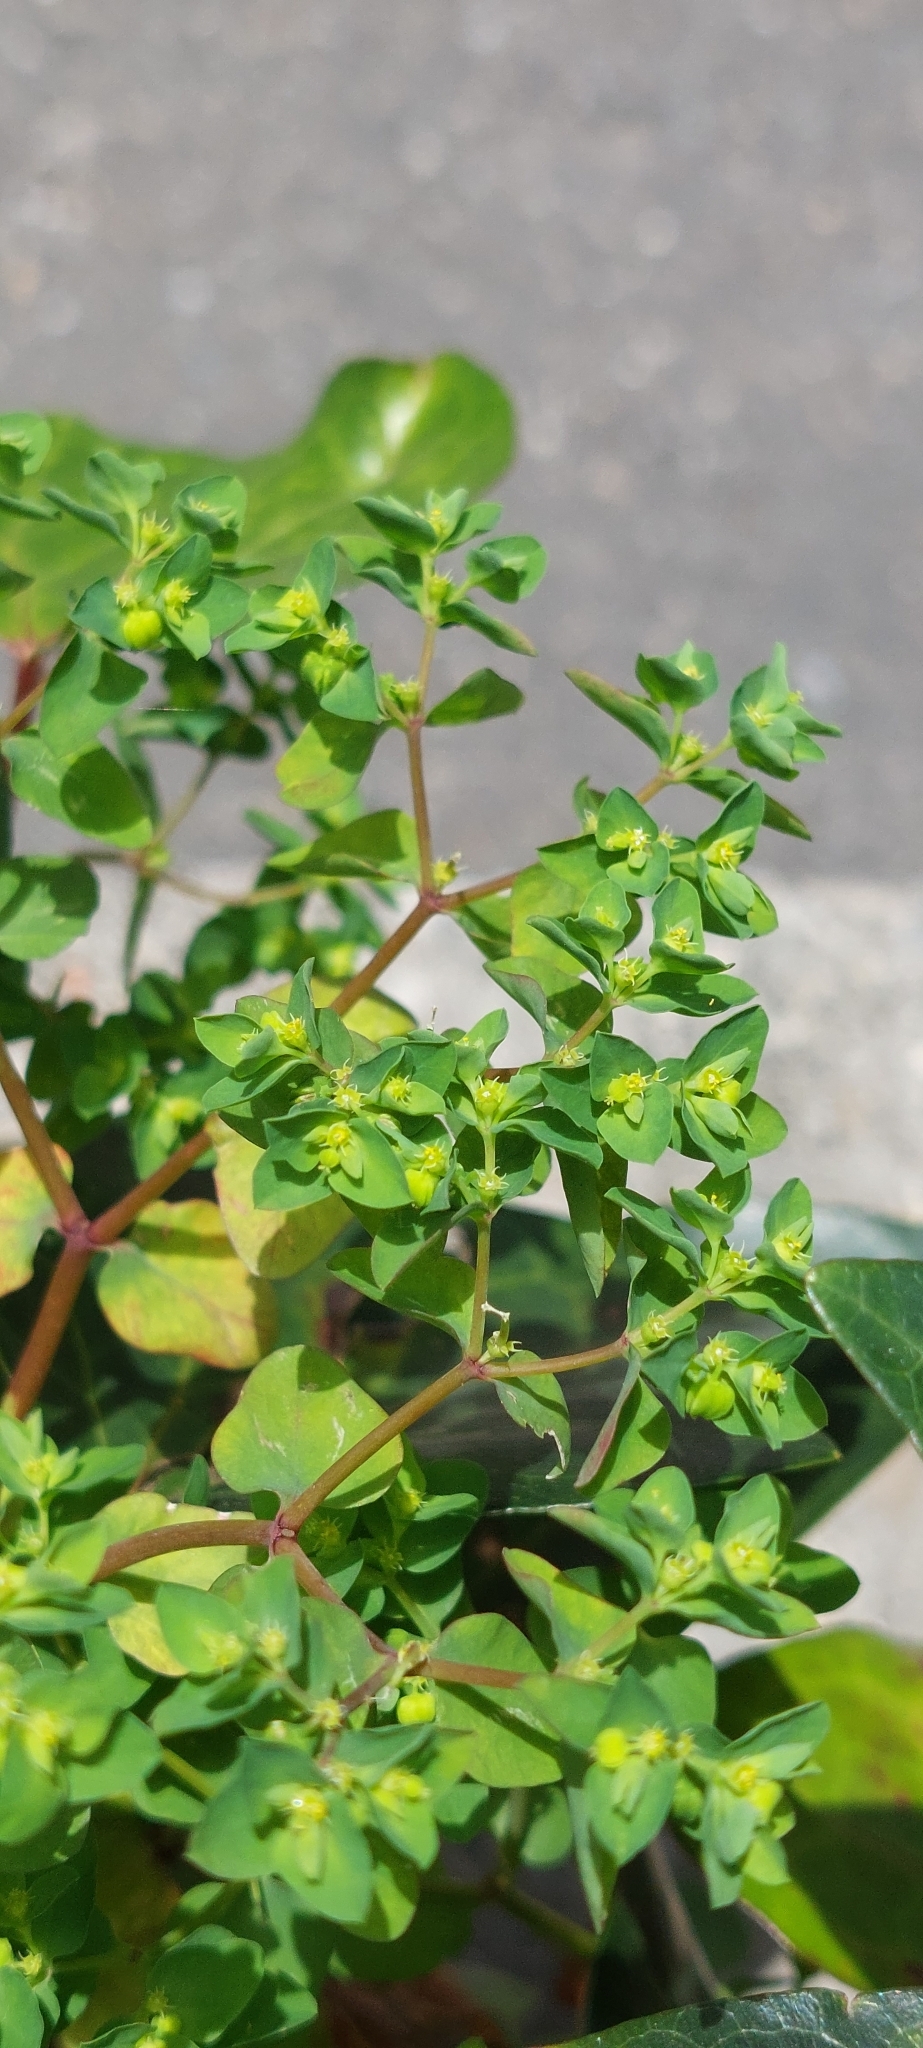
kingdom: Plantae
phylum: Tracheophyta
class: Magnoliopsida
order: Malpighiales
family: Euphorbiaceae
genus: Euphorbia
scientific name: Euphorbia peplus
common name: Petty spurge
